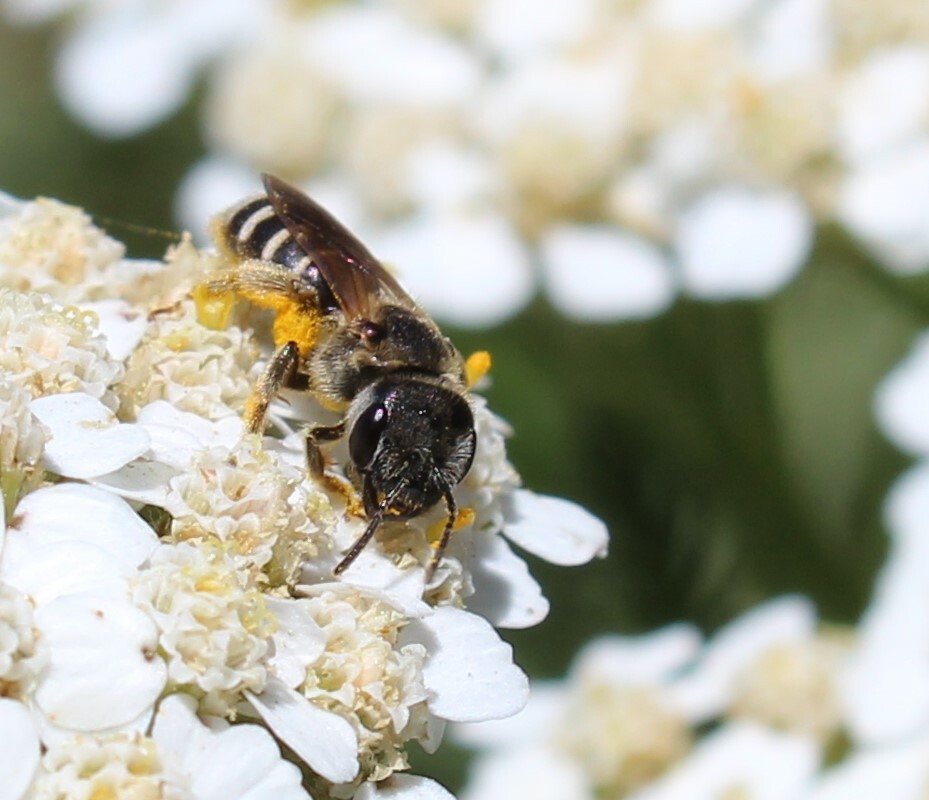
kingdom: Animalia
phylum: Arthropoda
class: Insecta
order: Hymenoptera
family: Halictidae
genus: Halictus
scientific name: Halictus ligatus
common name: Ligated furrow bee
